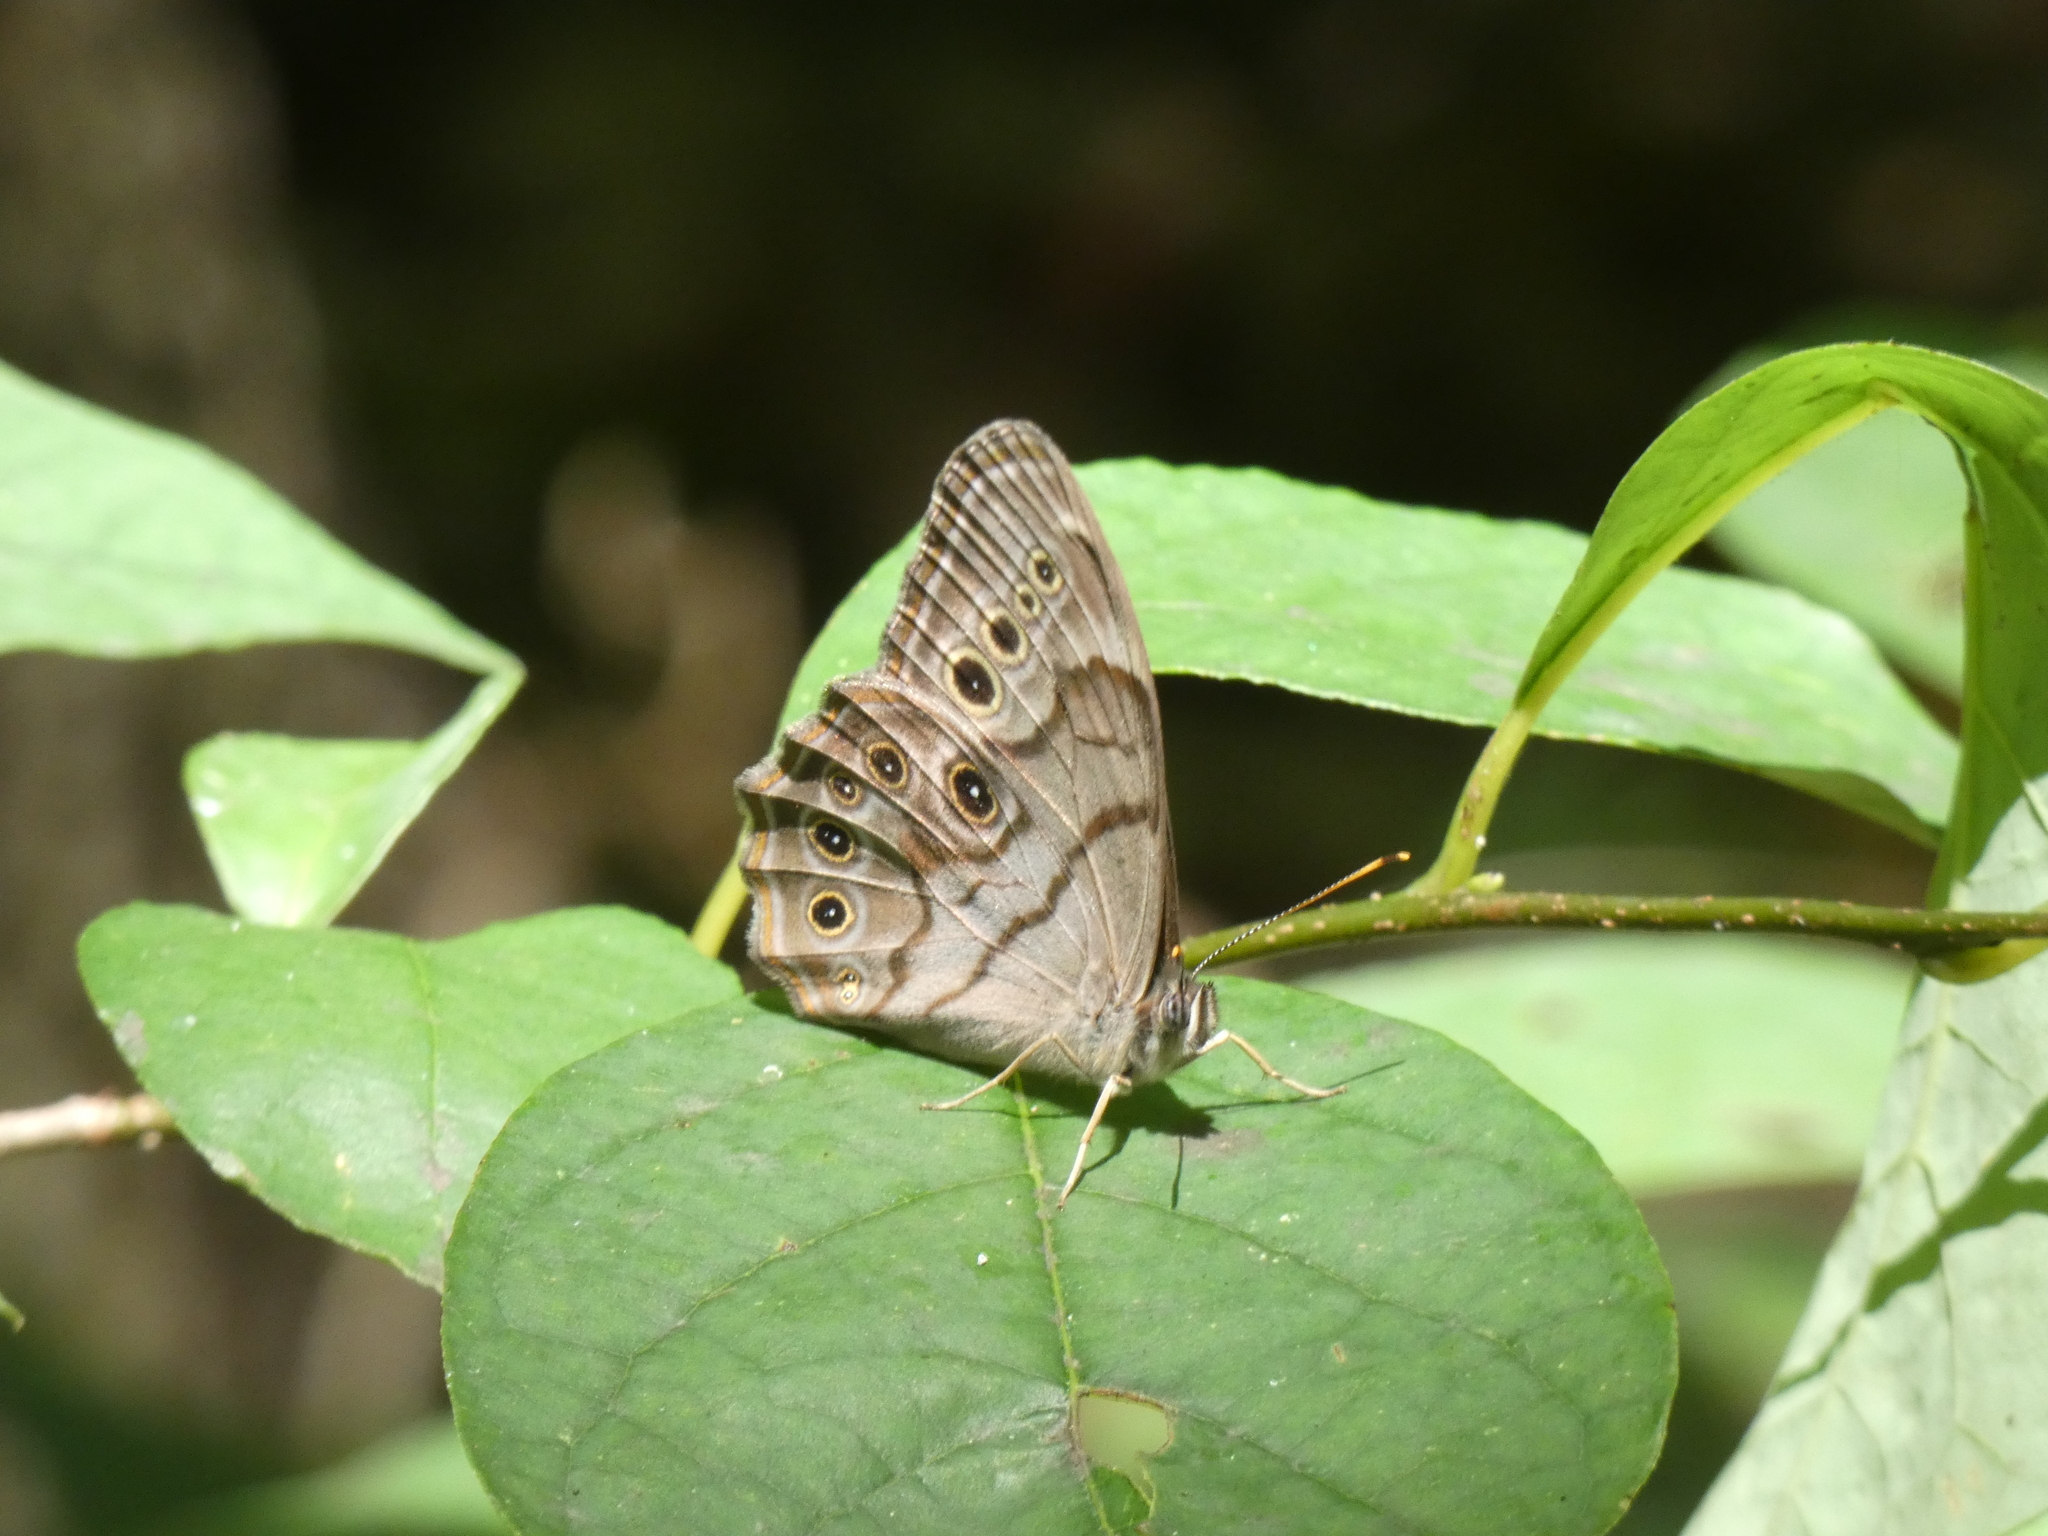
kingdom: Animalia
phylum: Arthropoda
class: Insecta
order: Lepidoptera
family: Nymphalidae
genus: Lethe
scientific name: Lethe anthedon
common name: Northern pearly-eye
